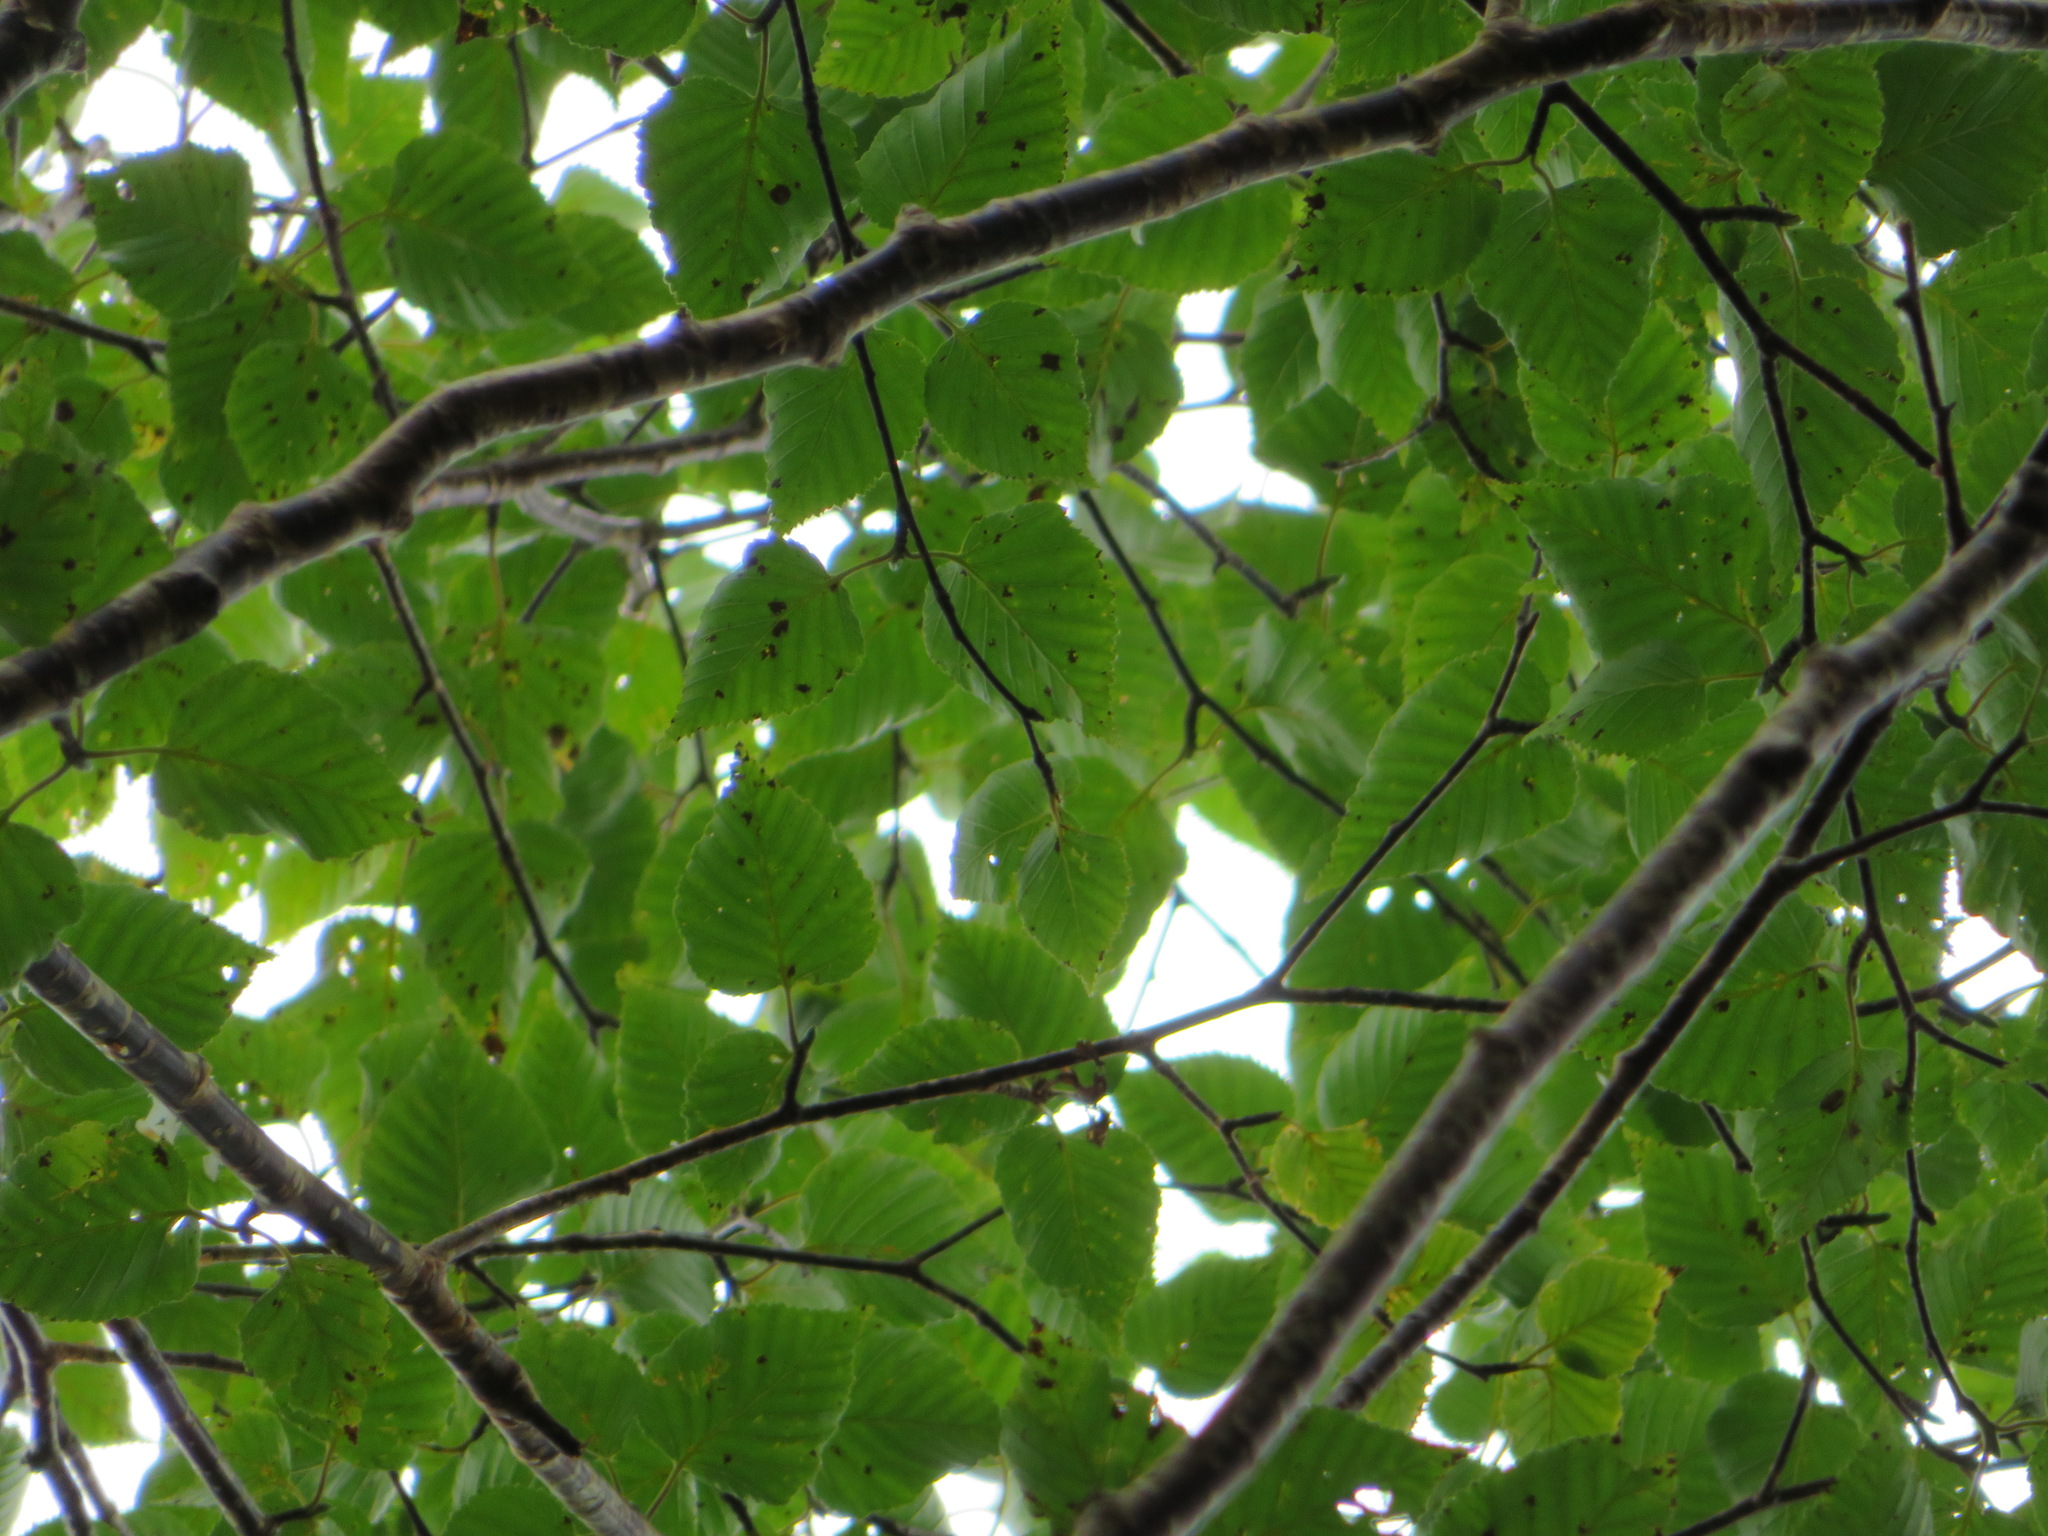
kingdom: Plantae
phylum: Tracheophyta
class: Magnoliopsida
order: Fagales
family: Betulaceae
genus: Betula
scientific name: Betula ermanii
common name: Erman's birch
